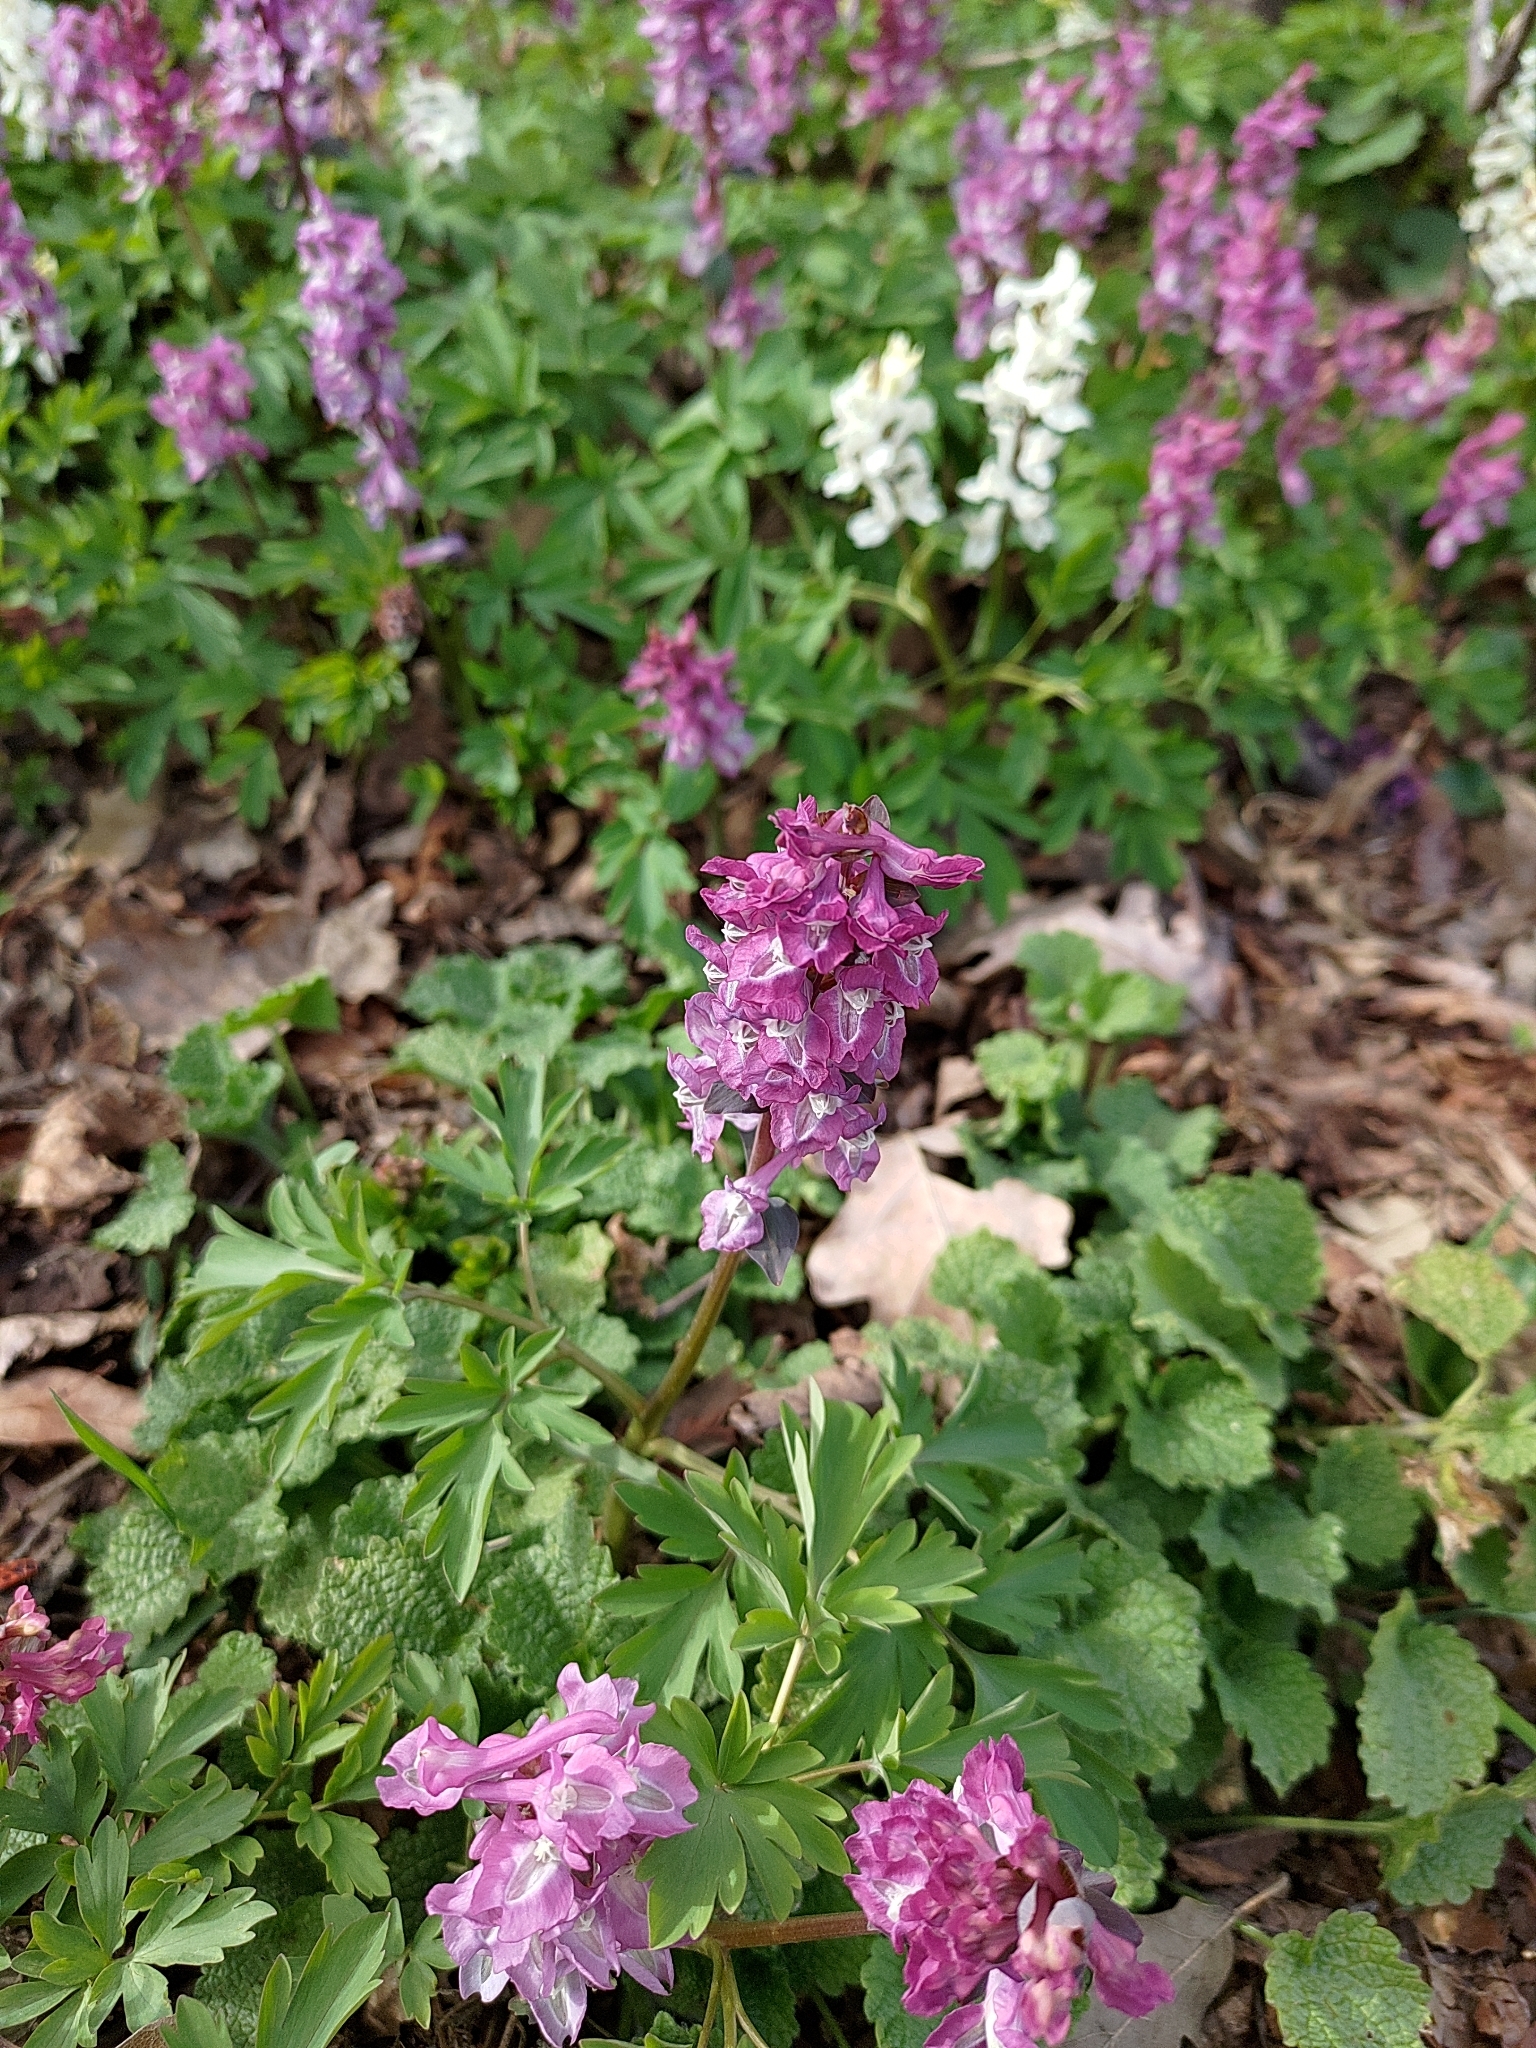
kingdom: Plantae
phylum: Tracheophyta
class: Magnoliopsida
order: Ranunculales
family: Papaveraceae
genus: Corydalis
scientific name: Corydalis cava
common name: Hollowroot
